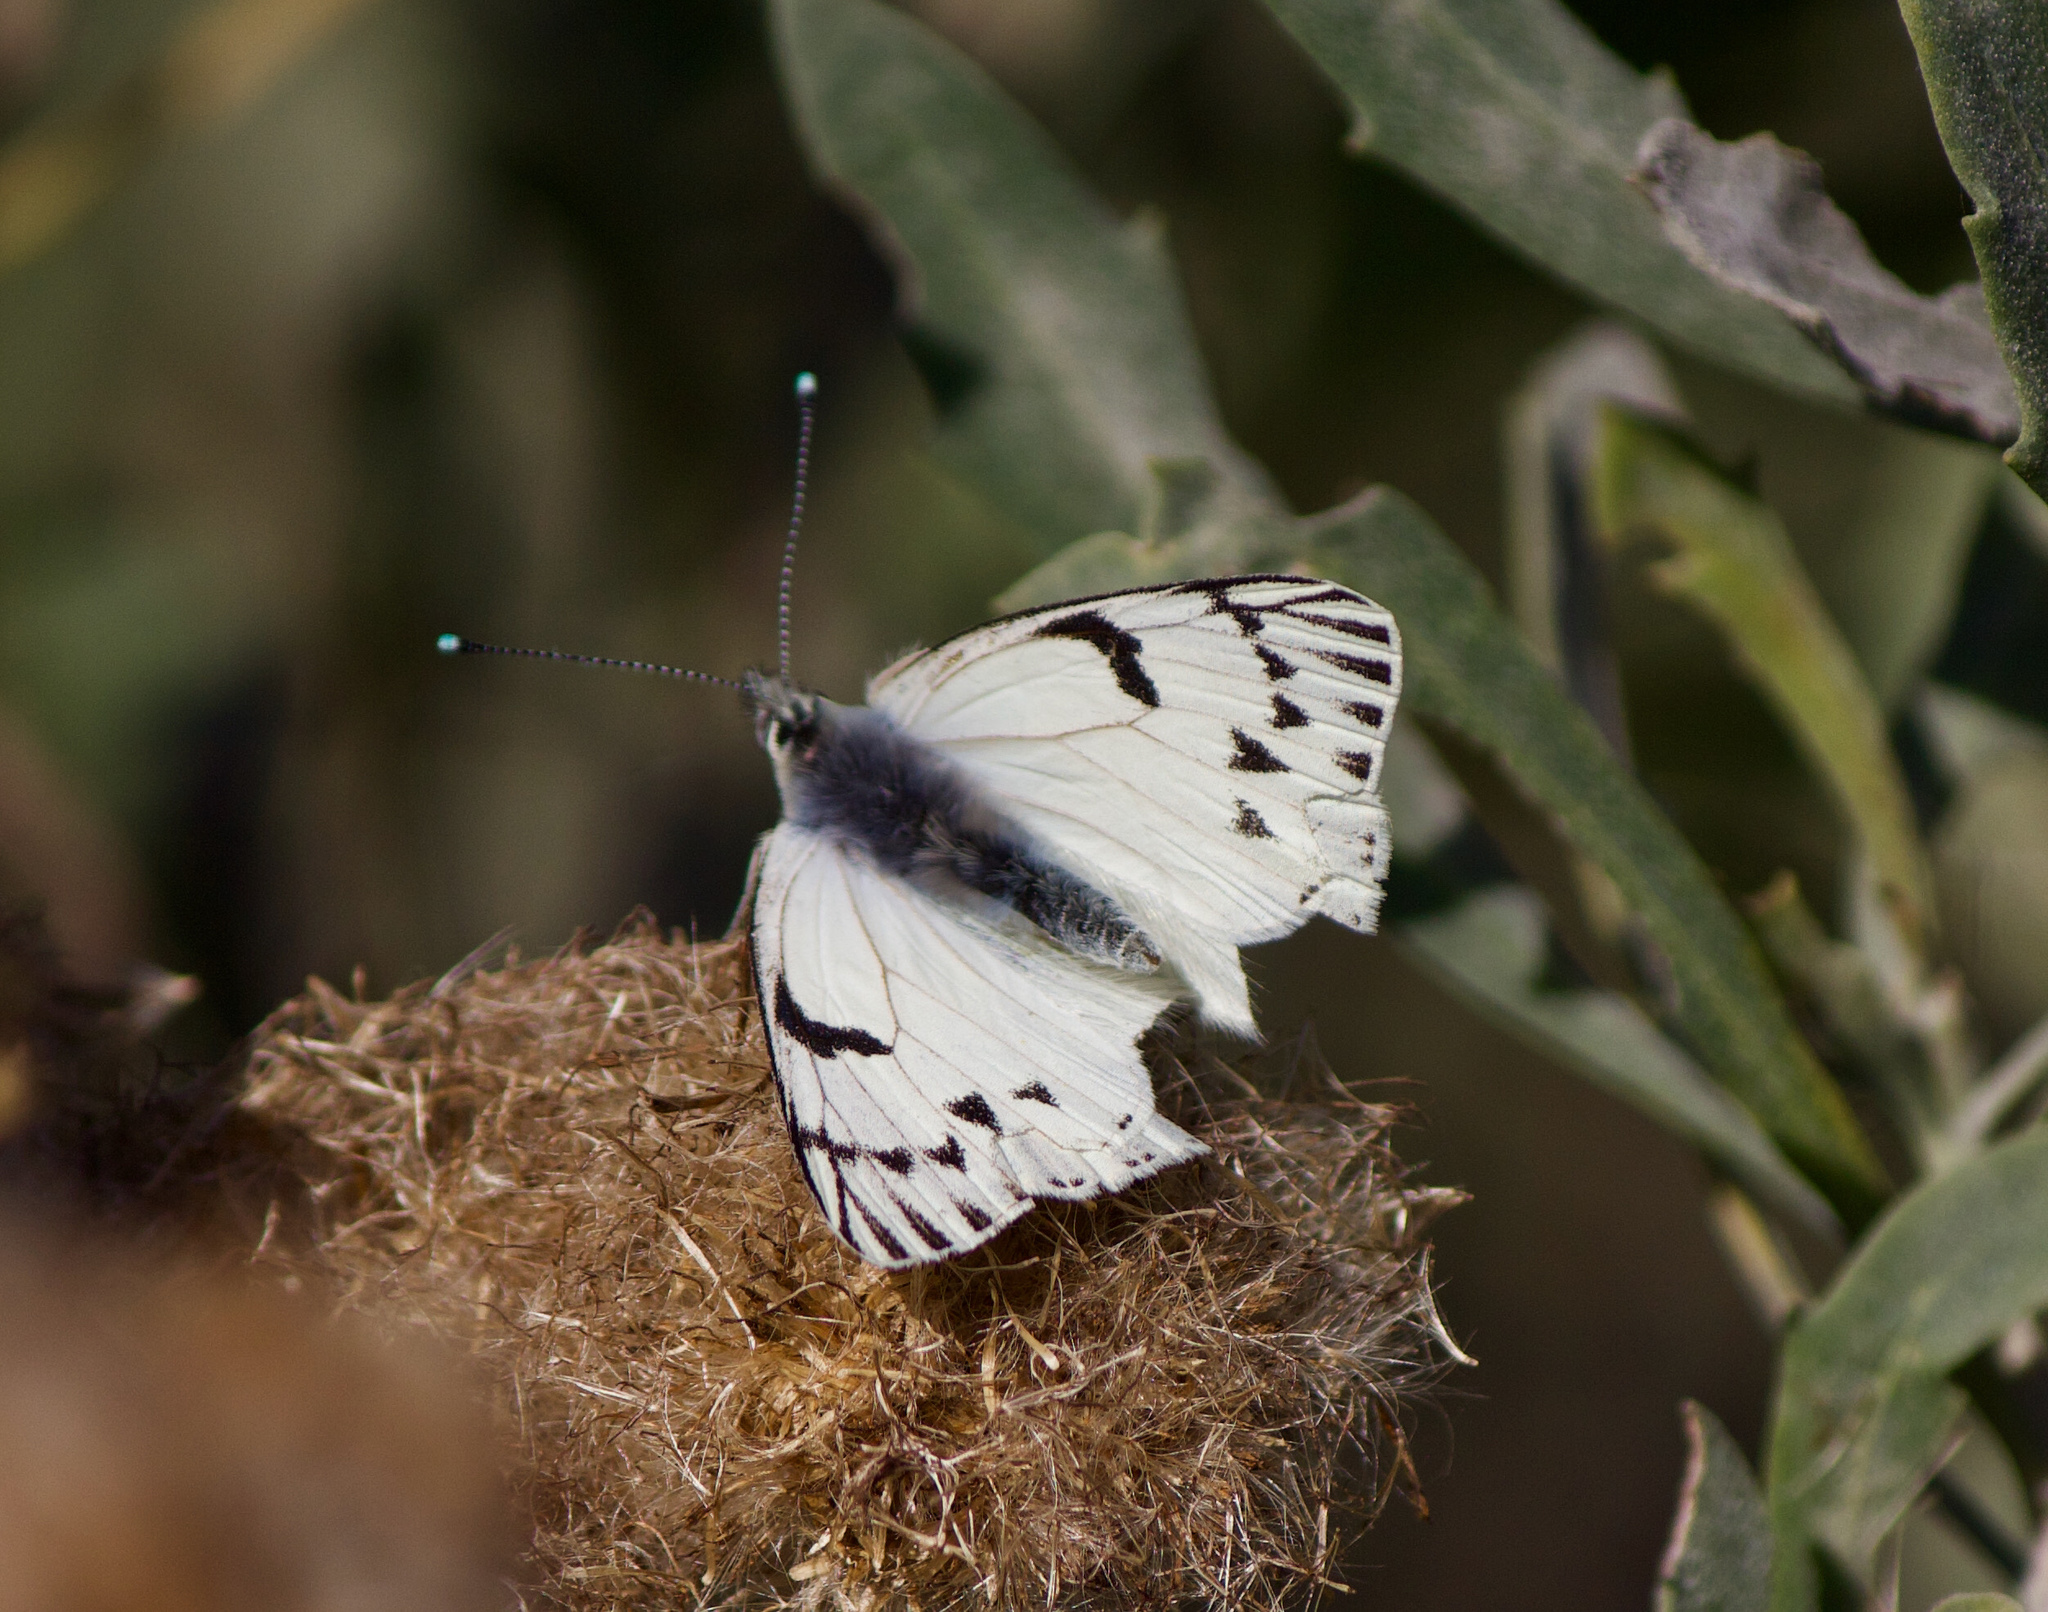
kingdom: Animalia
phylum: Arthropoda
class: Insecta
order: Lepidoptera
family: Pieridae
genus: Tatochila
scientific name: Tatochila mercedis
